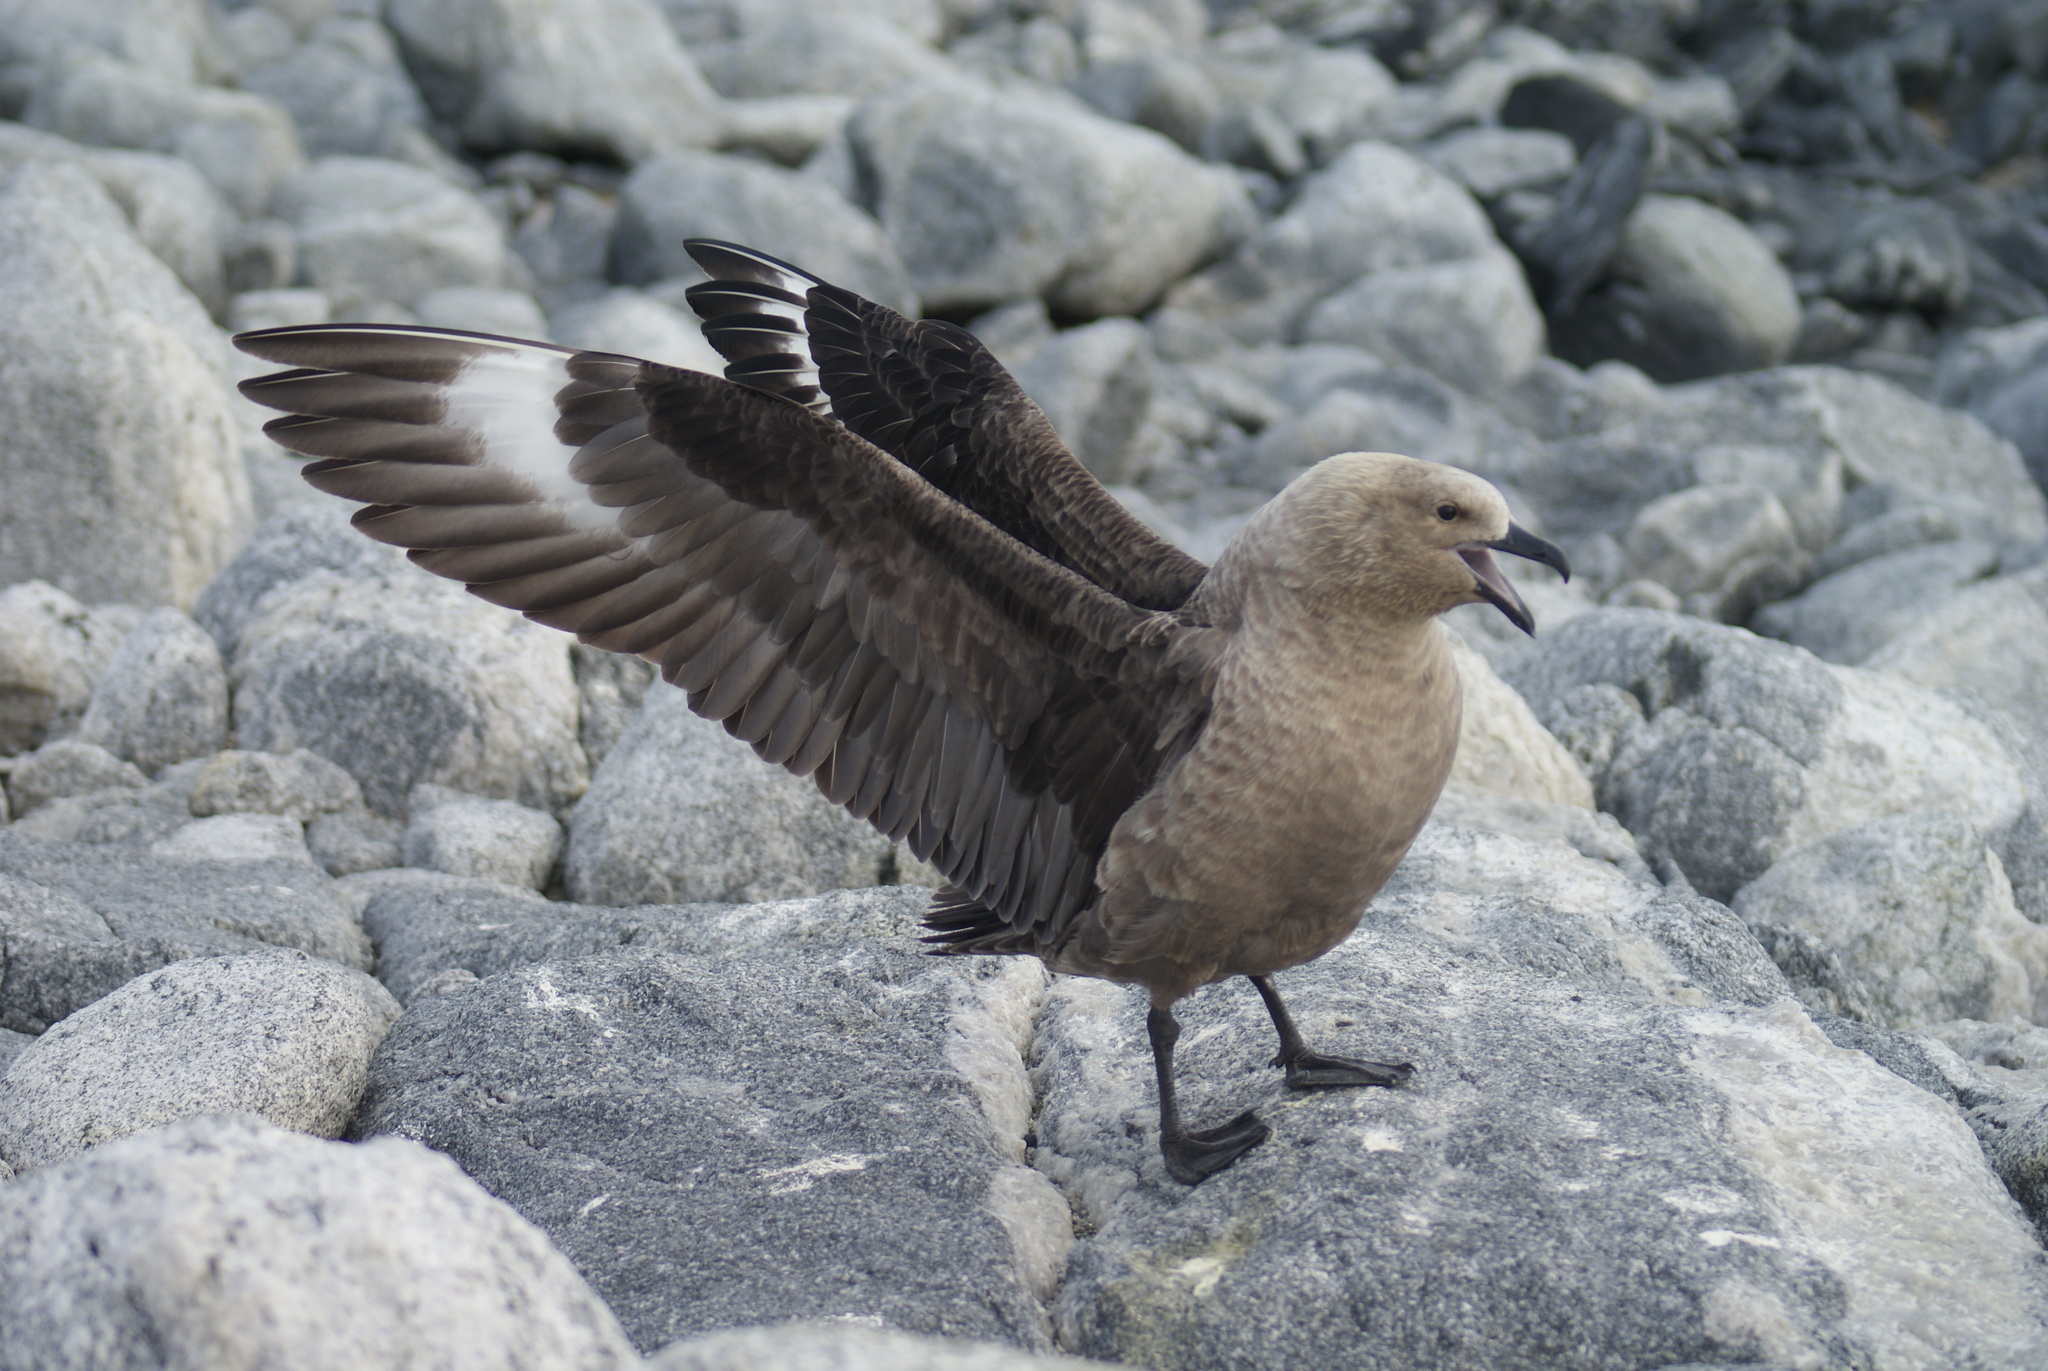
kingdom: Animalia
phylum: Chordata
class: Aves
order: Charadriiformes
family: Stercorariidae
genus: Stercorarius
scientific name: Stercorarius maccormicki
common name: South polar skua
